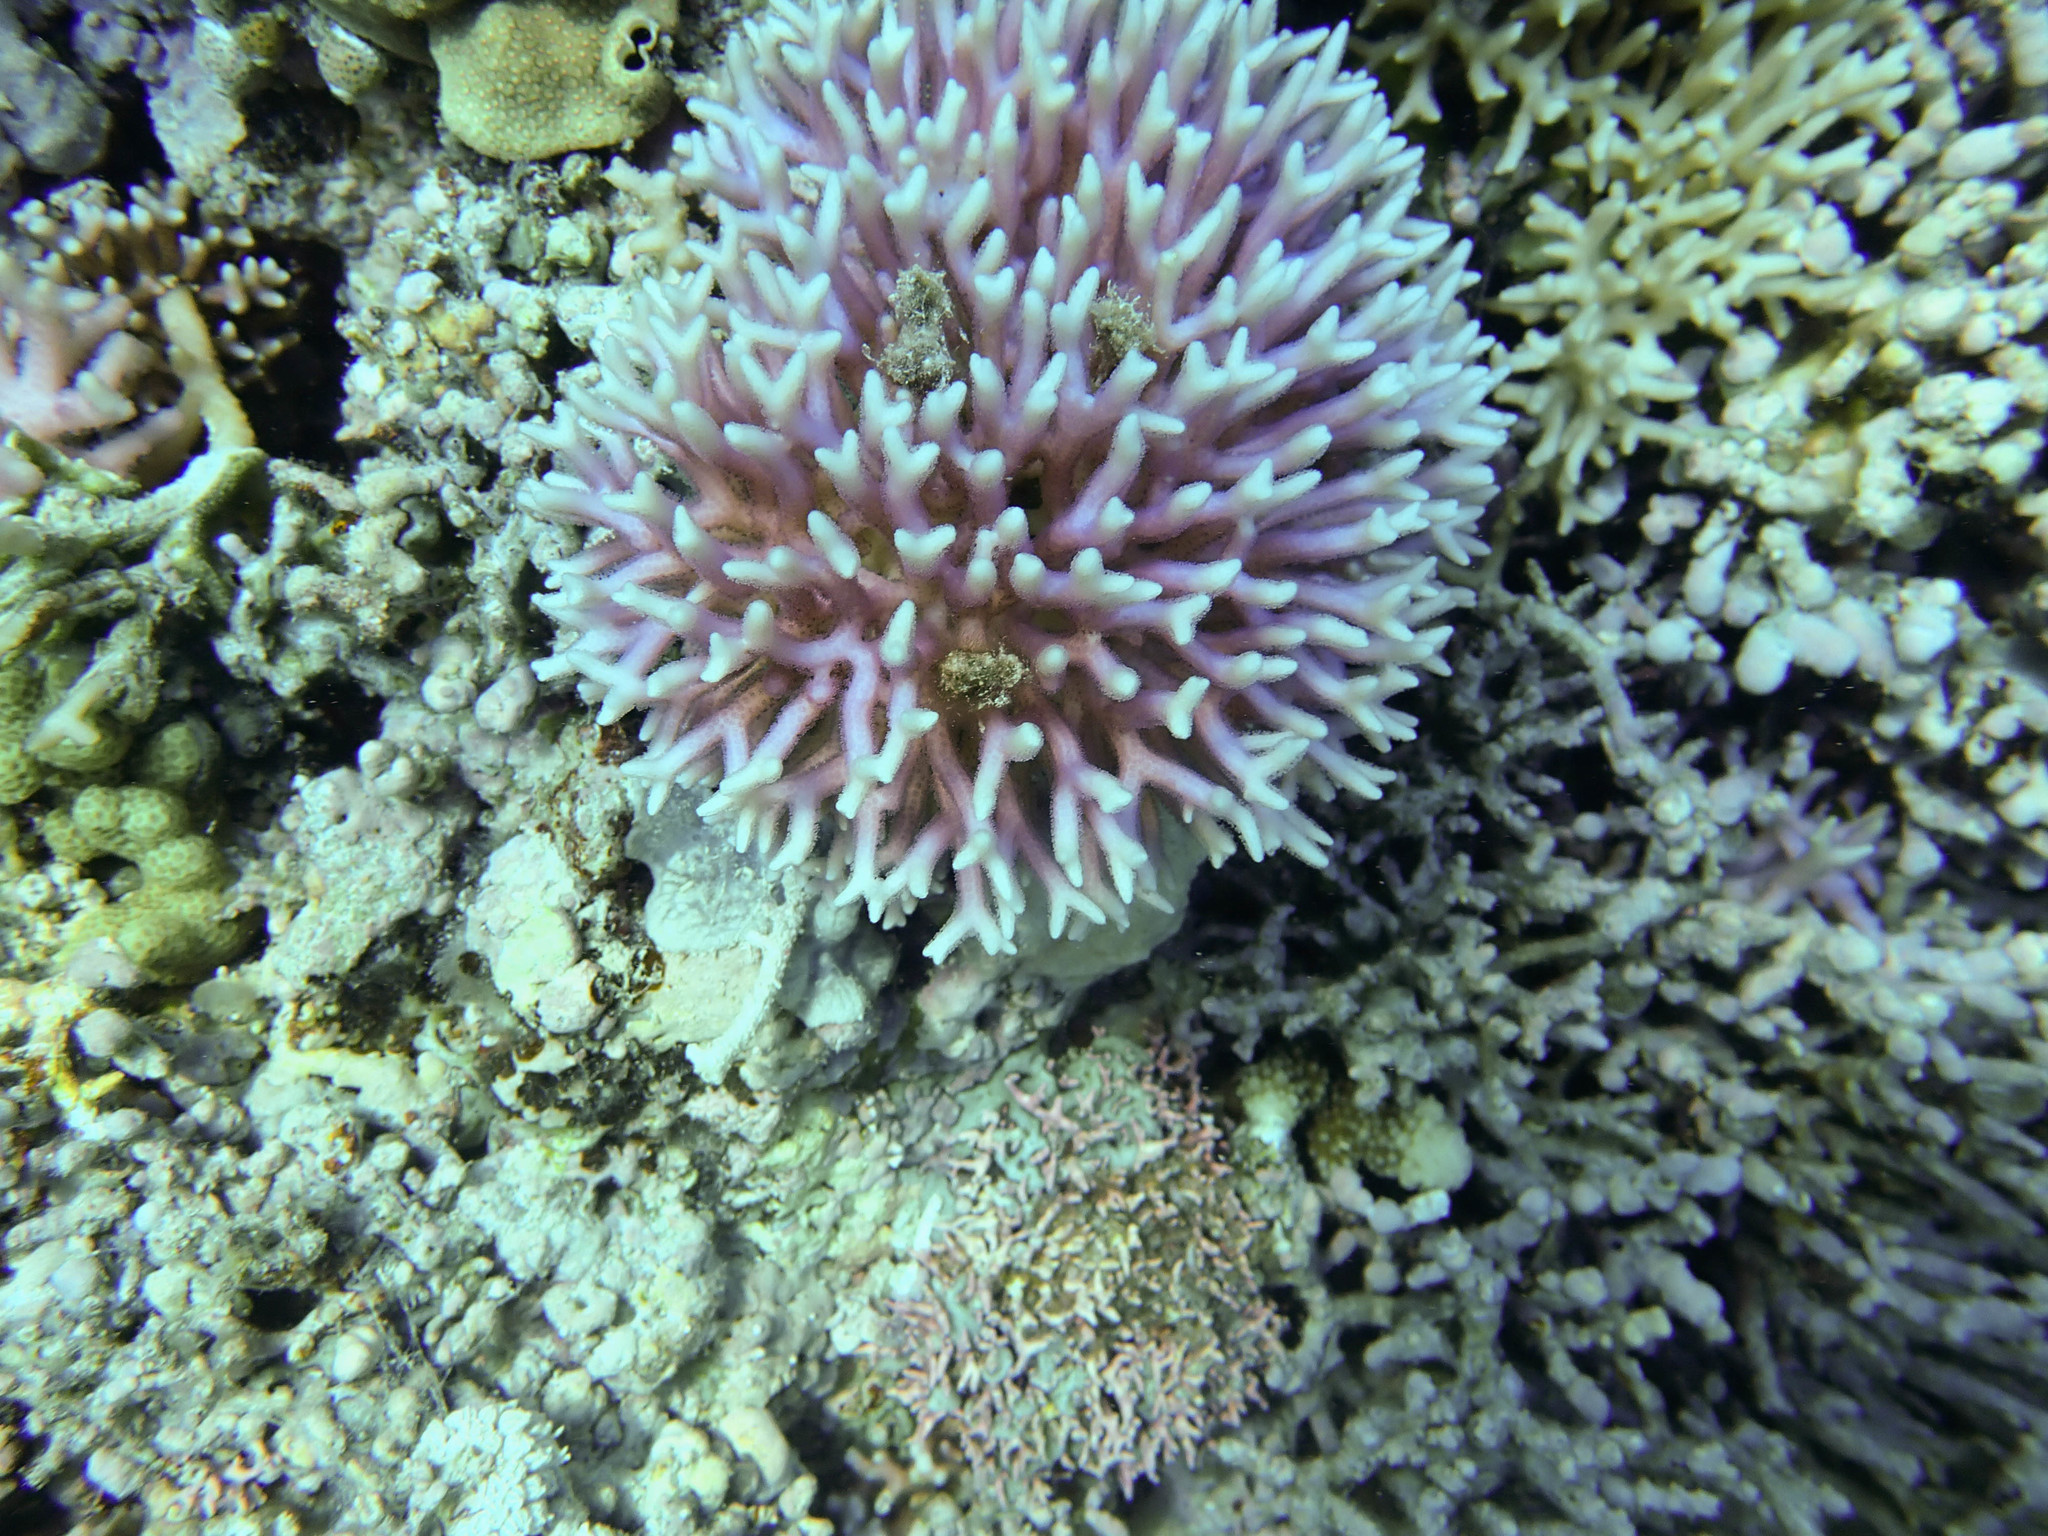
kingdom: Animalia
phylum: Cnidaria
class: Anthozoa
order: Scleractinia
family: Pocilloporidae
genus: Seriatopora
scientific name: Seriatopora caliendrum
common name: Bush coral
